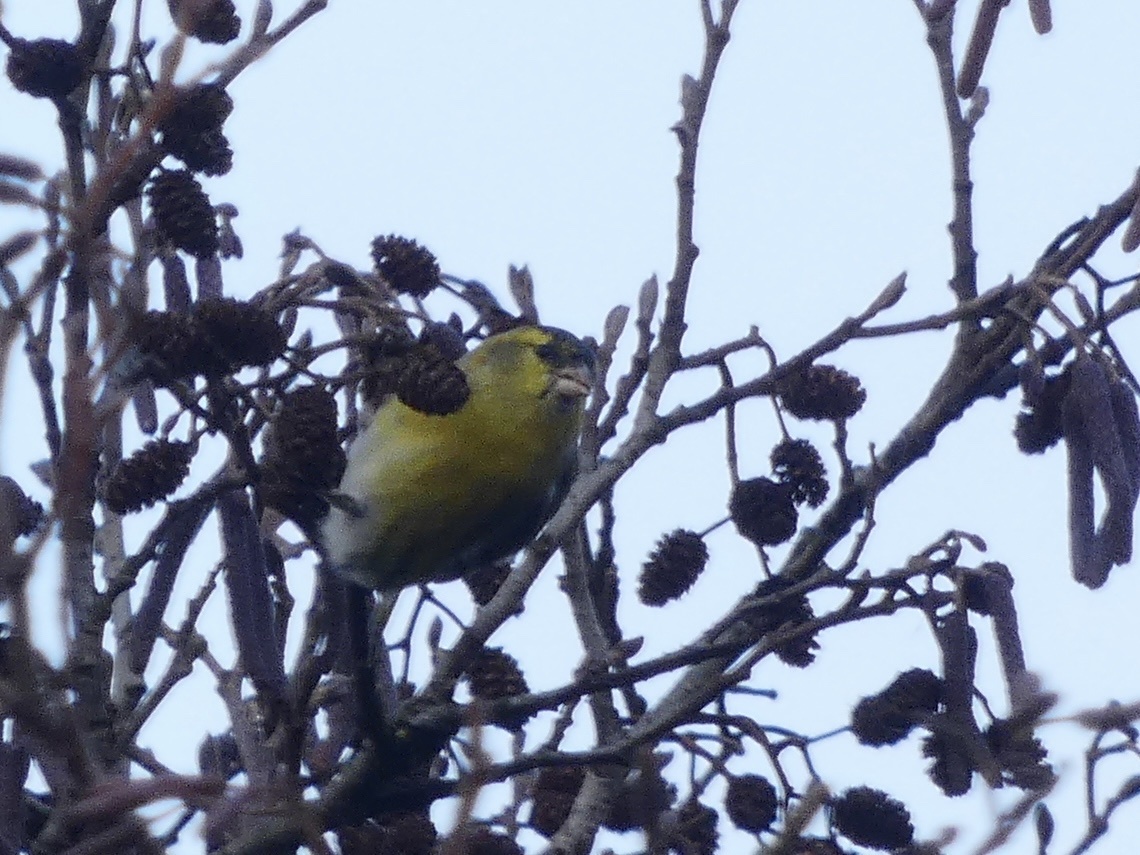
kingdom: Animalia
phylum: Chordata
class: Aves
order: Passeriformes
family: Fringillidae
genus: Spinus
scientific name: Spinus spinus
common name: Eurasian siskin
